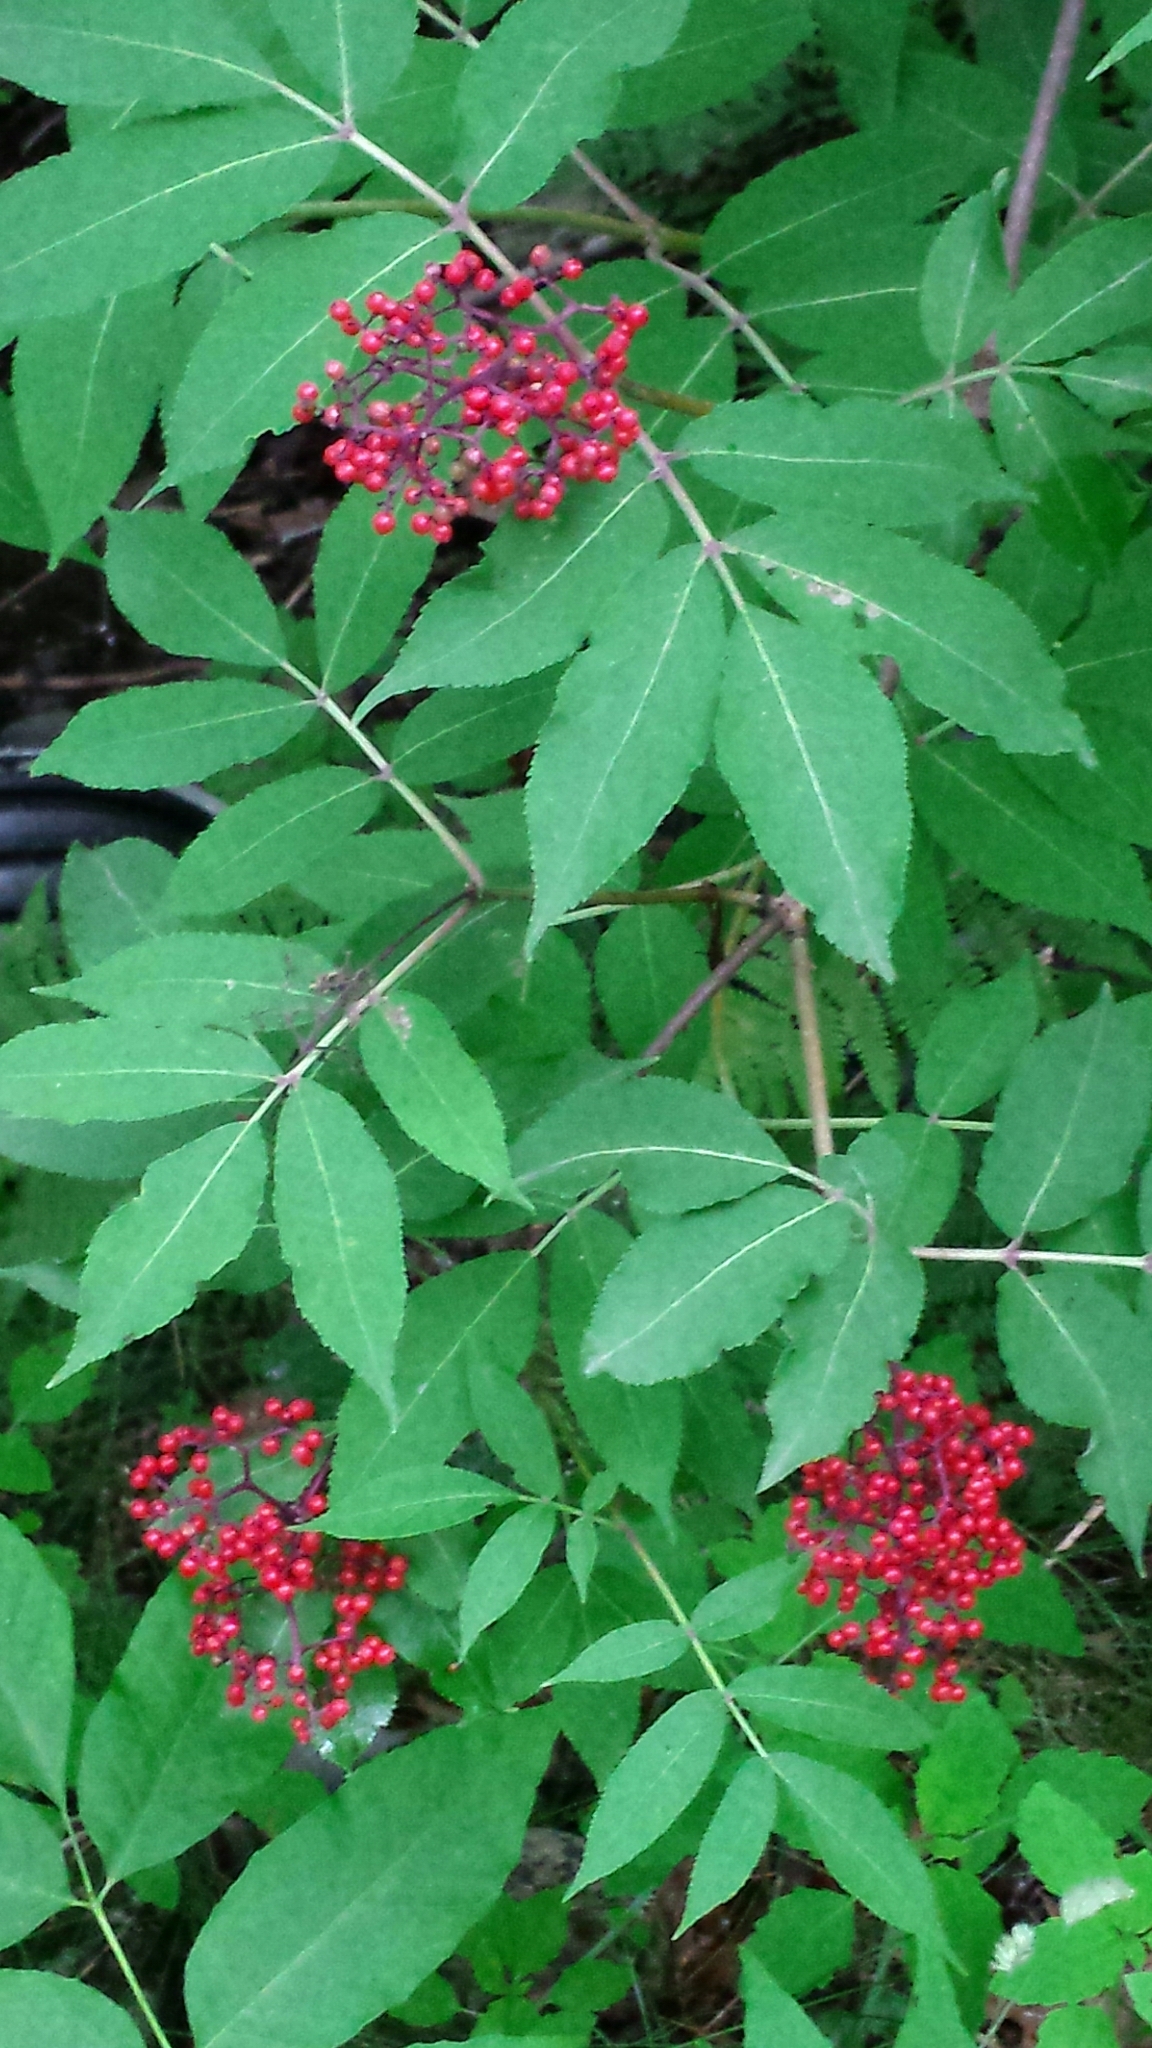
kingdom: Plantae
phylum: Tracheophyta
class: Magnoliopsida
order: Dipsacales
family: Viburnaceae
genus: Sambucus
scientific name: Sambucus racemosa
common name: Red-berried elder
